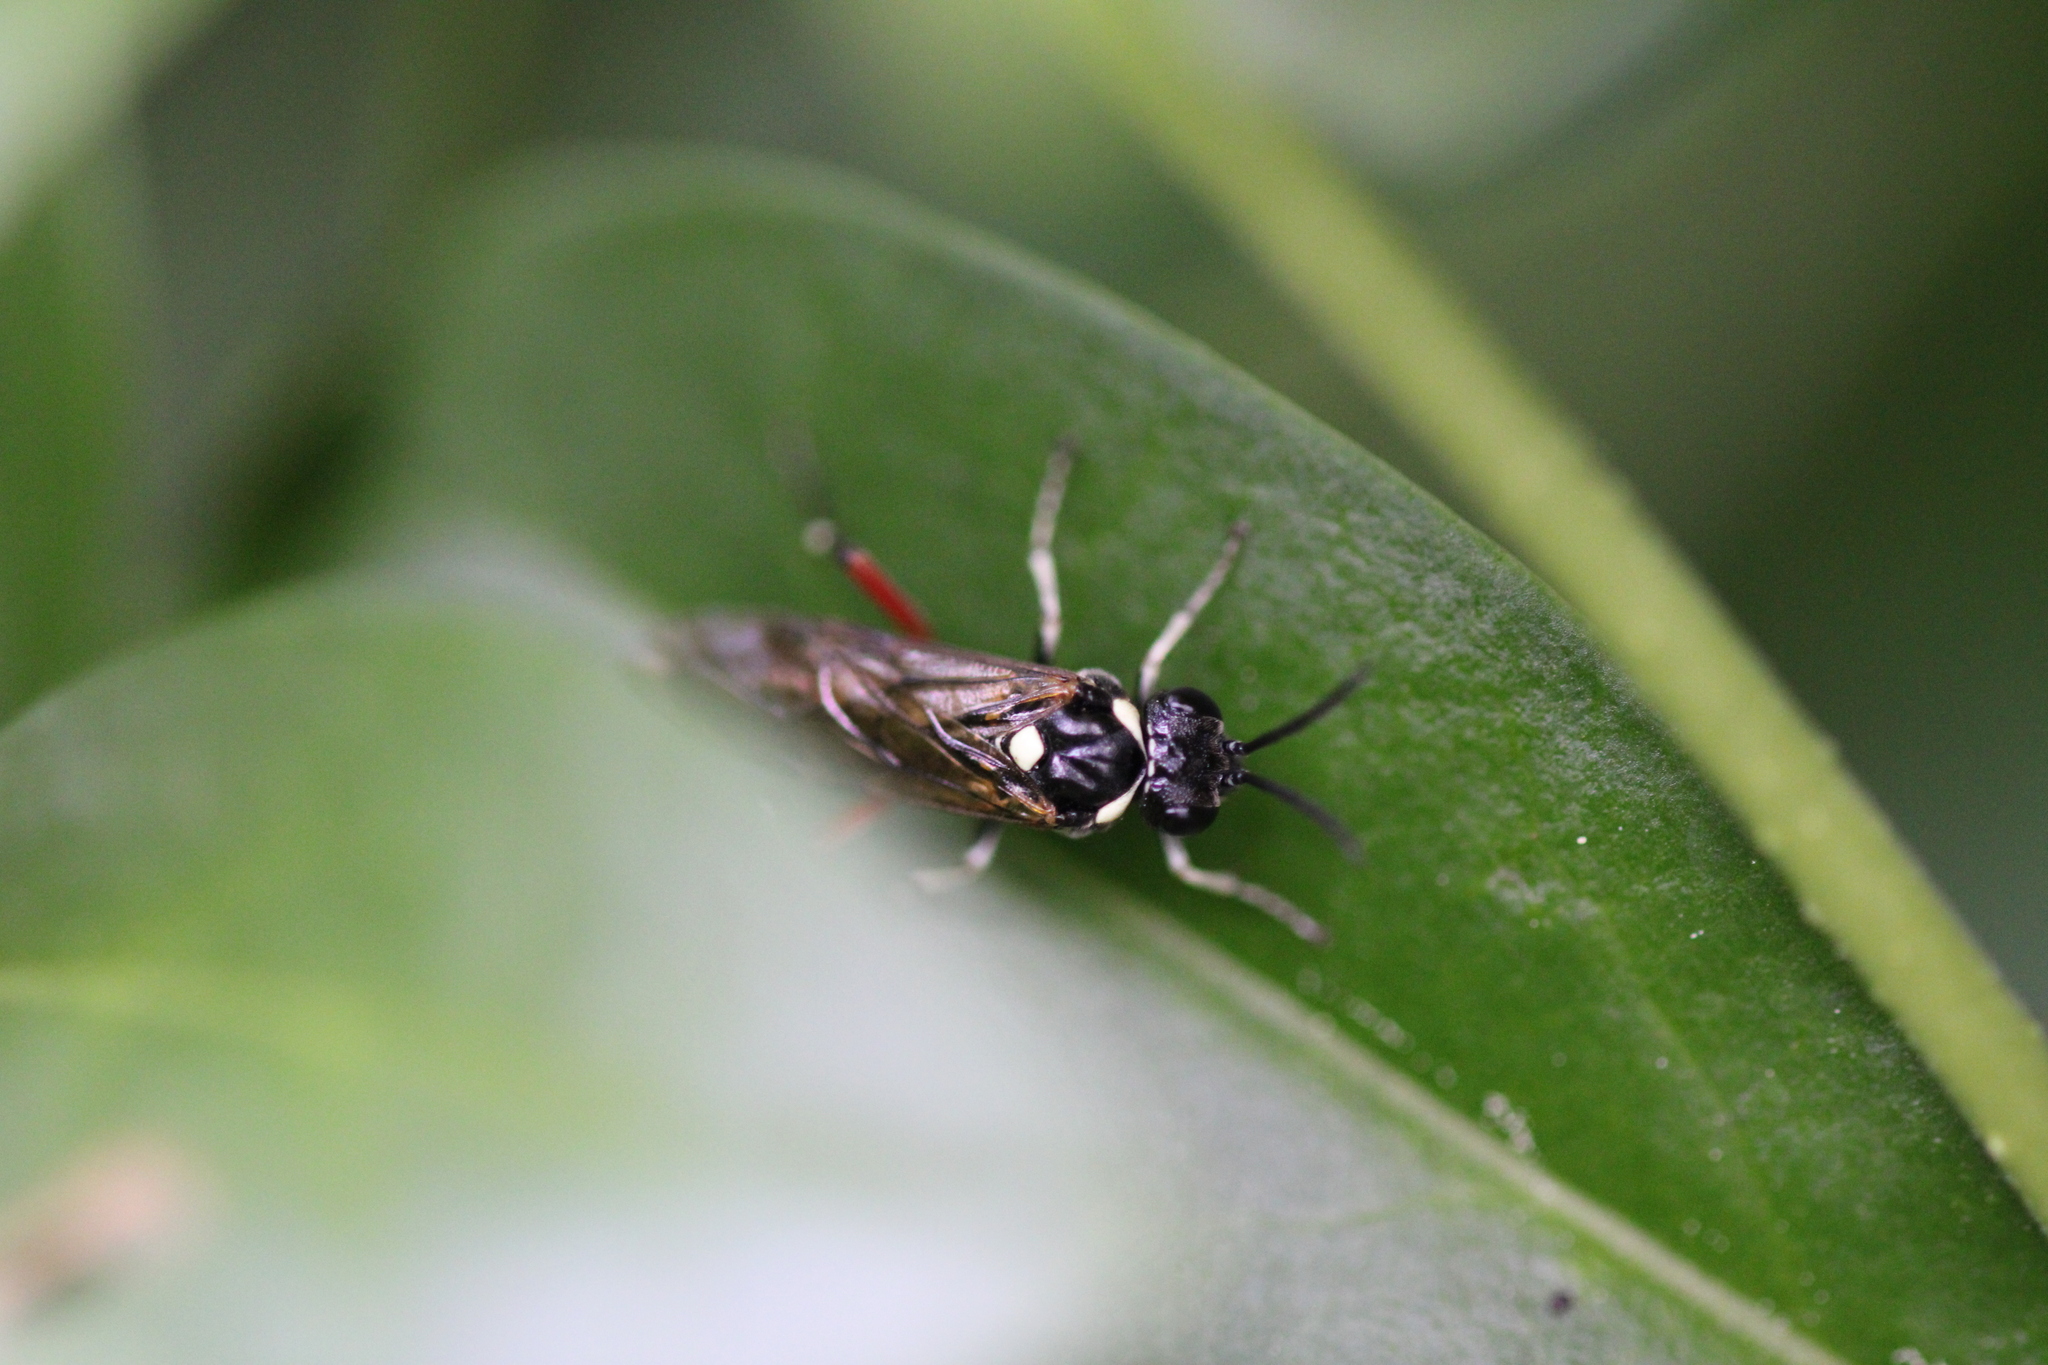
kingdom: Animalia
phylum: Arthropoda
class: Insecta
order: Hymenoptera
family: Tenthredinidae
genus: Macrophya
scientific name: Macrophya punctumalbum
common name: Sawfly
